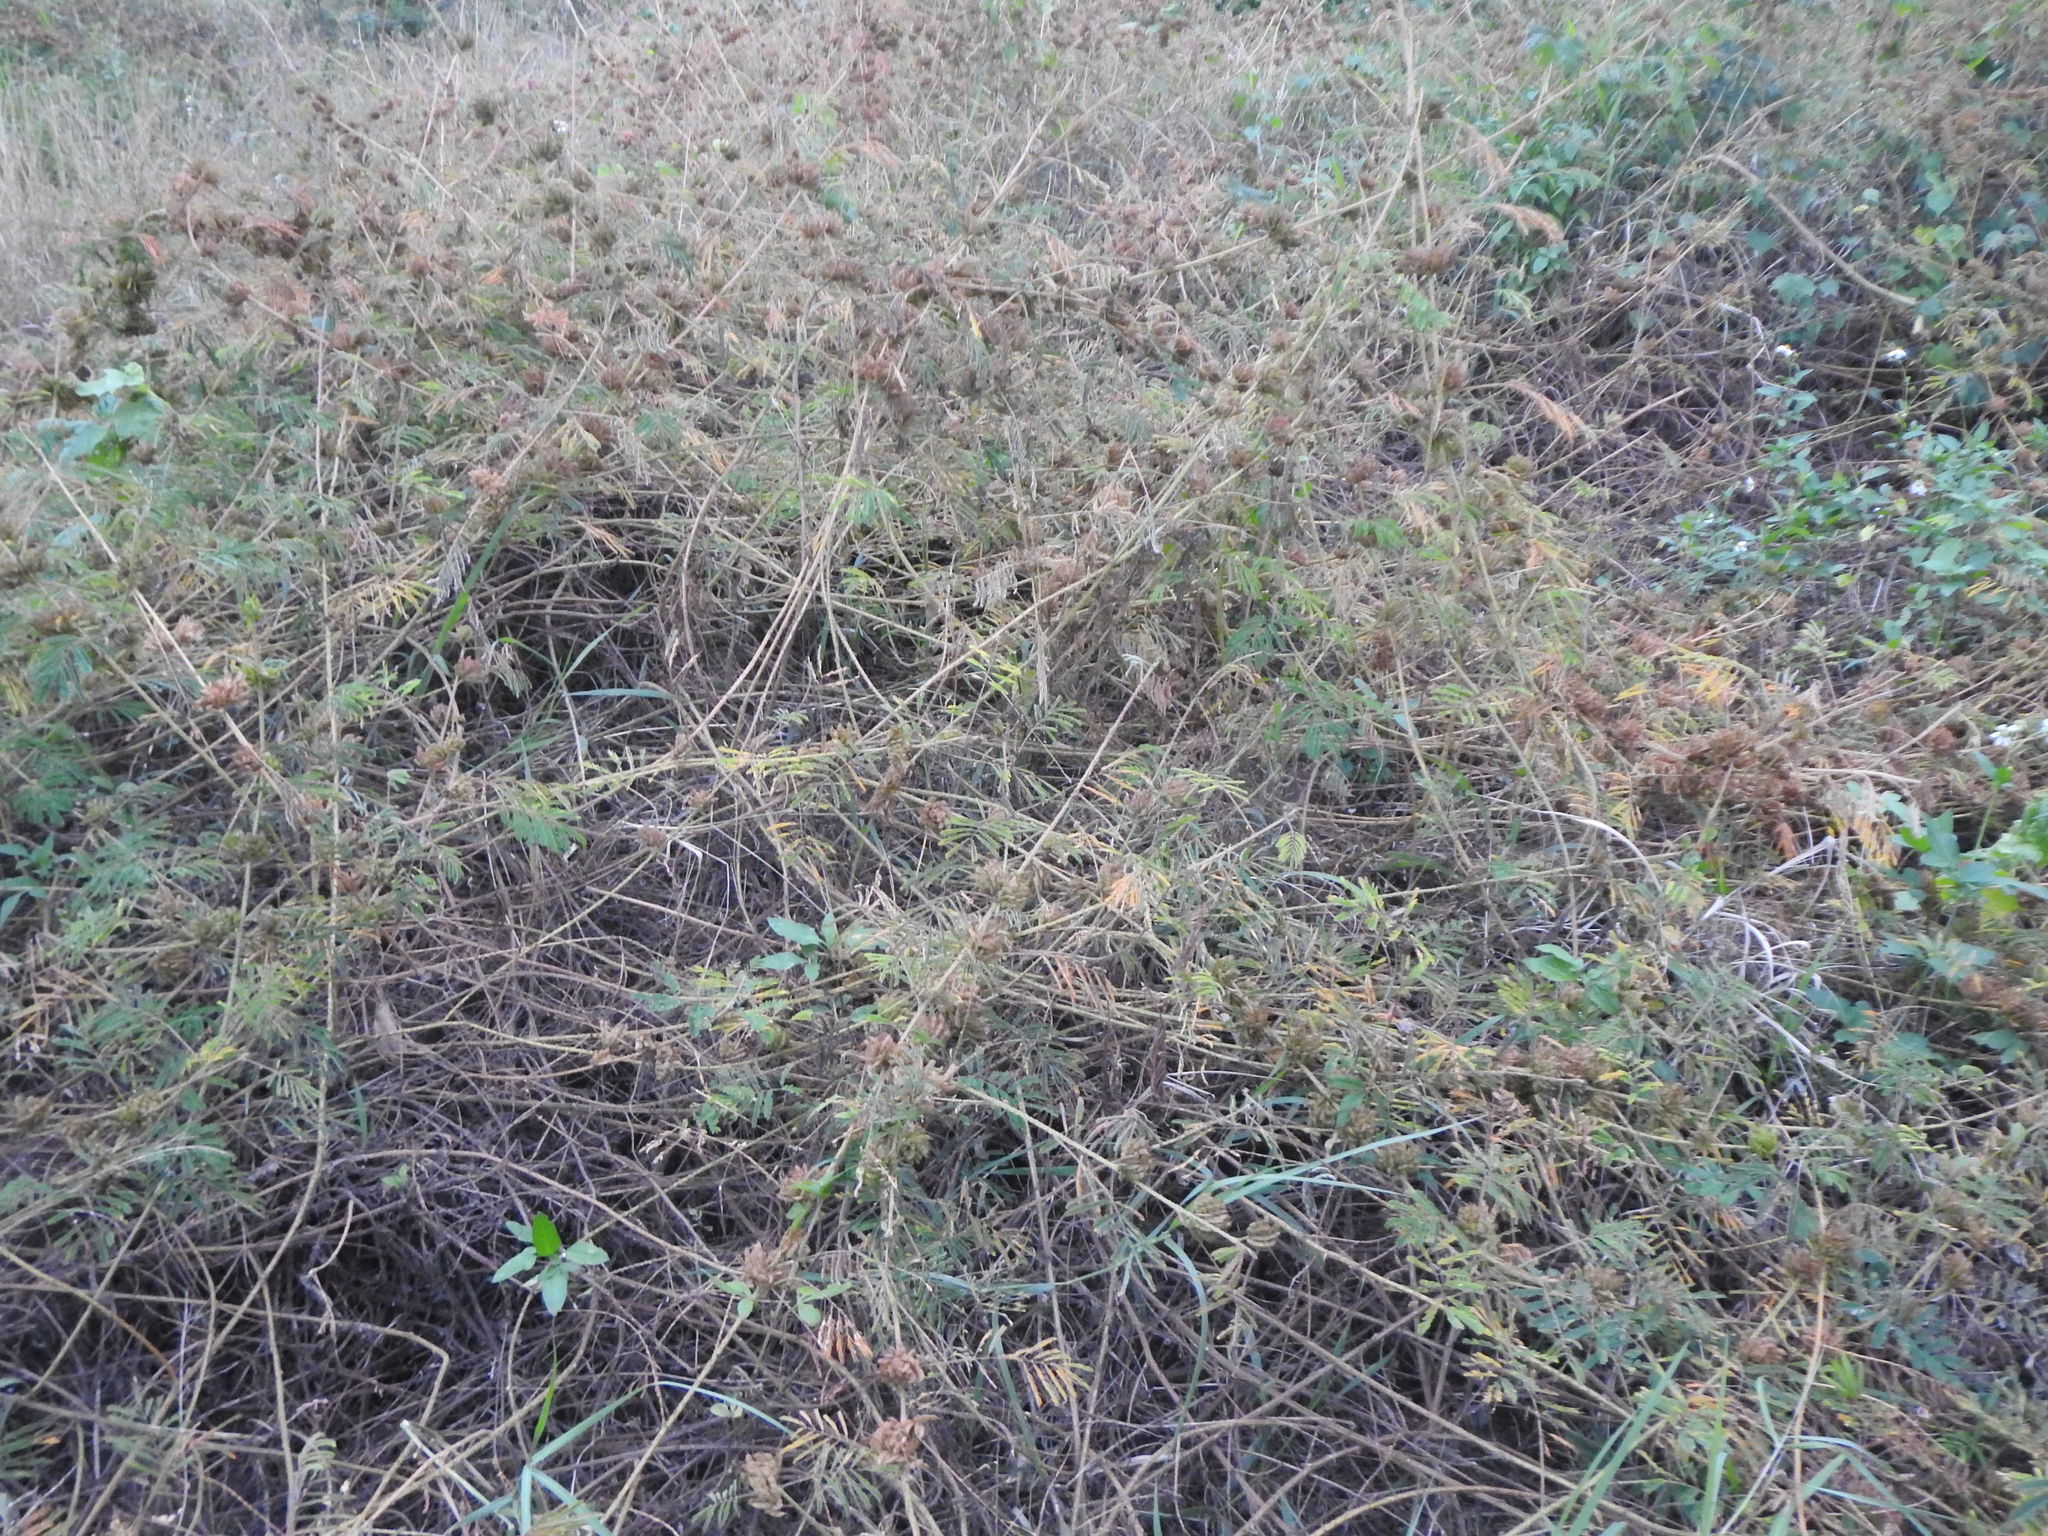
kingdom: Plantae
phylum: Tracheophyta
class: Magnoliopsida
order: Fabales
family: Fabaceae
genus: Mimosa
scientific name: Mimosa diplotricha
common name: Giant sensitive-plant
